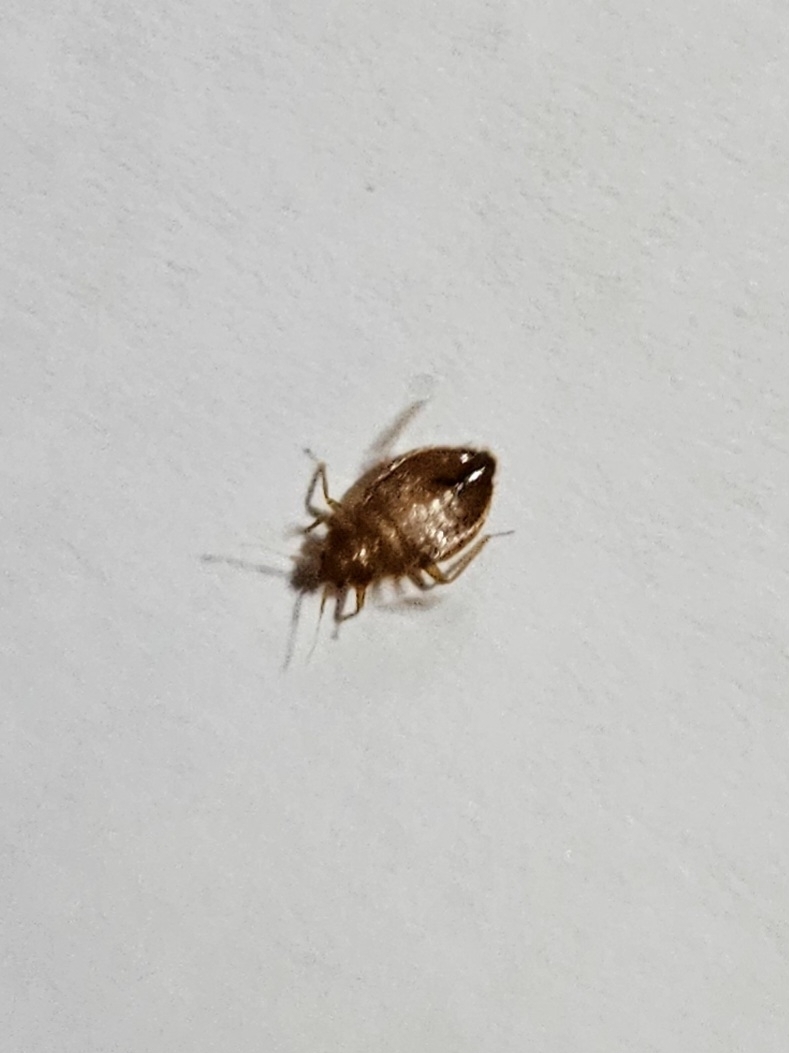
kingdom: Animalia
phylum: Arthropoda
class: Insecta
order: Hemiptera
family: Cimicidae
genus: Cimex
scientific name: Cimex lectularius
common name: Bed bug
